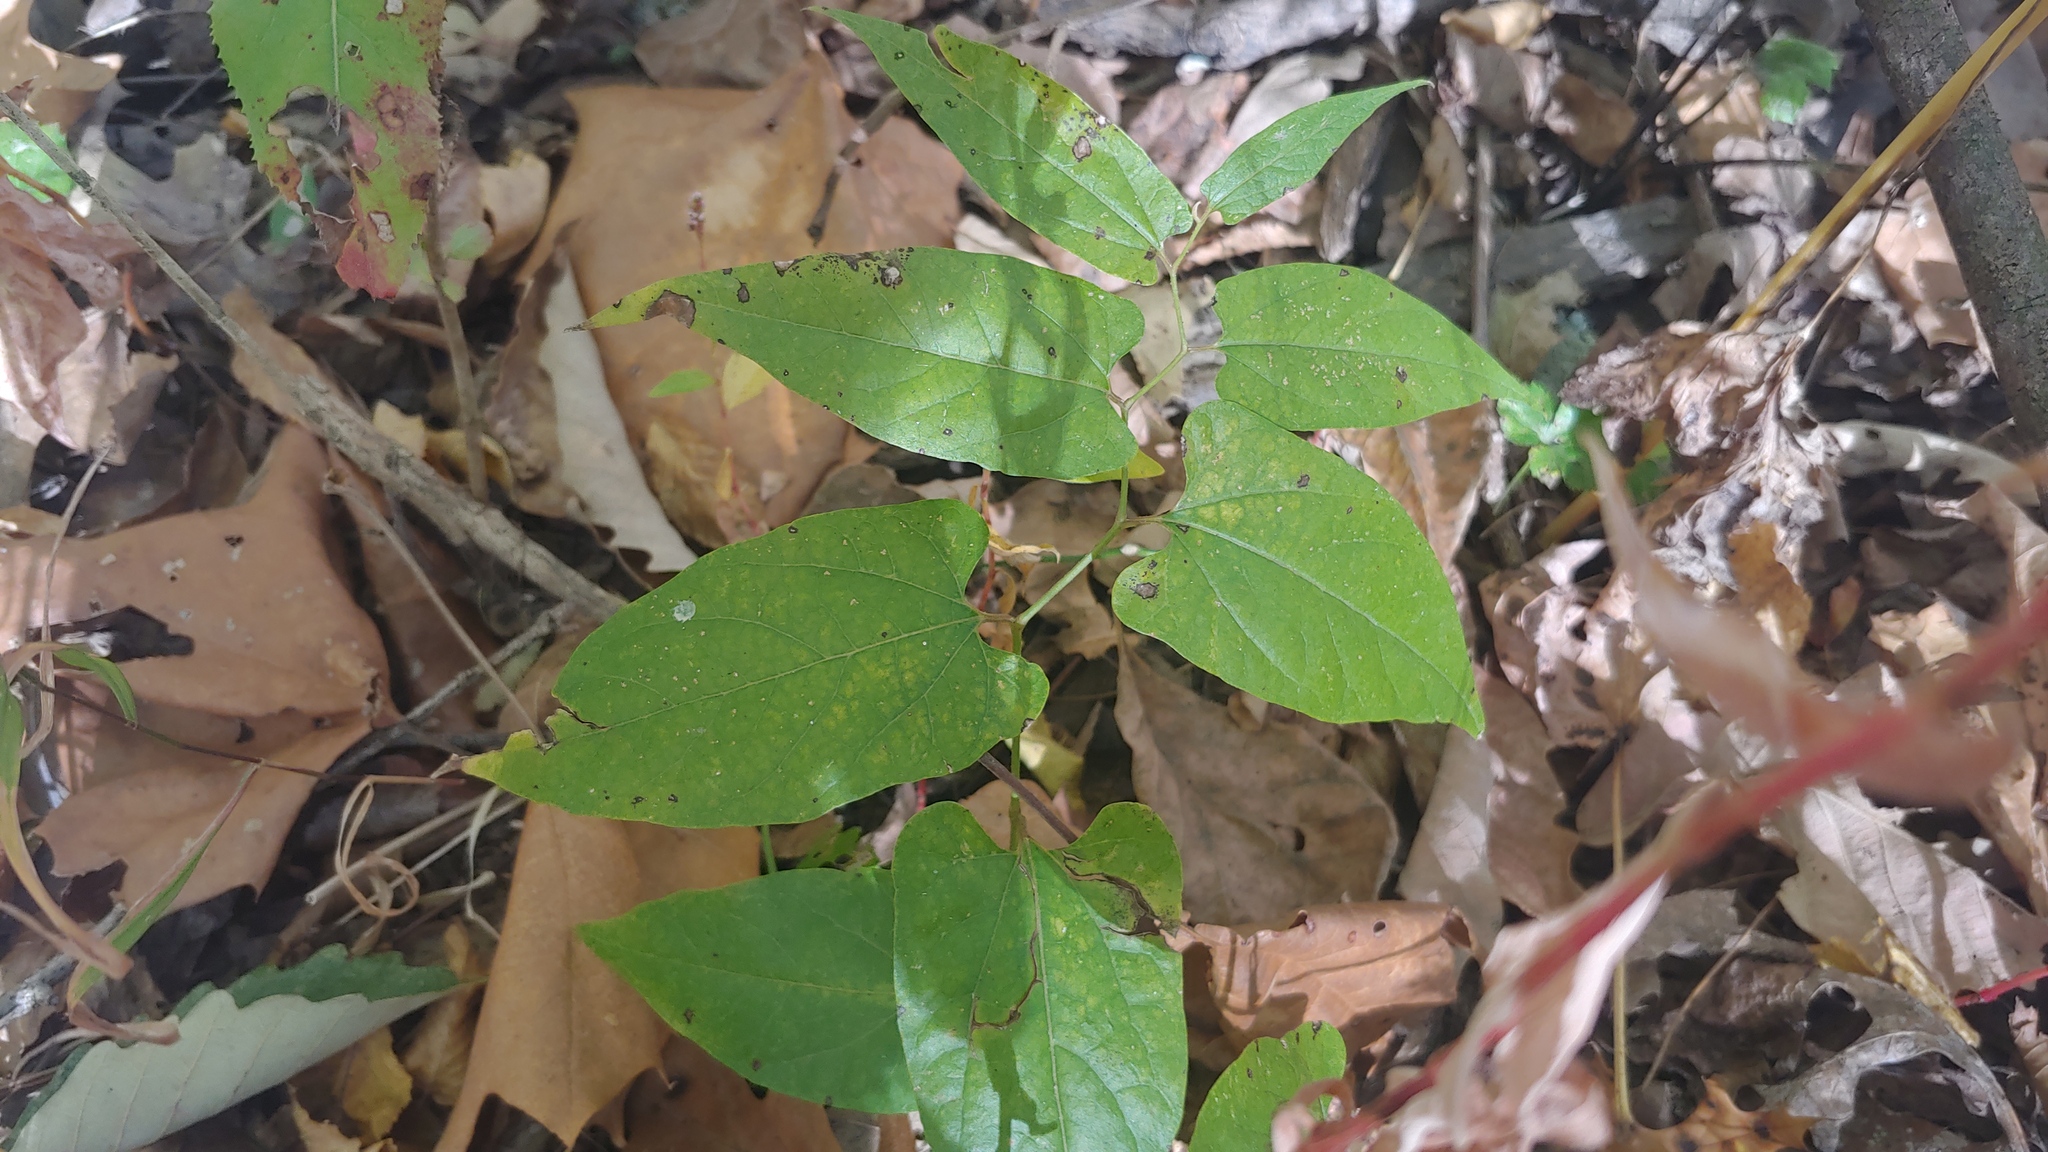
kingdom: Plantae
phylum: Tracheophyta
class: Magnoliopsida
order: Piperales
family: Aristolochiaceae
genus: Endodeca
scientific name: Endodeca serpentaria
